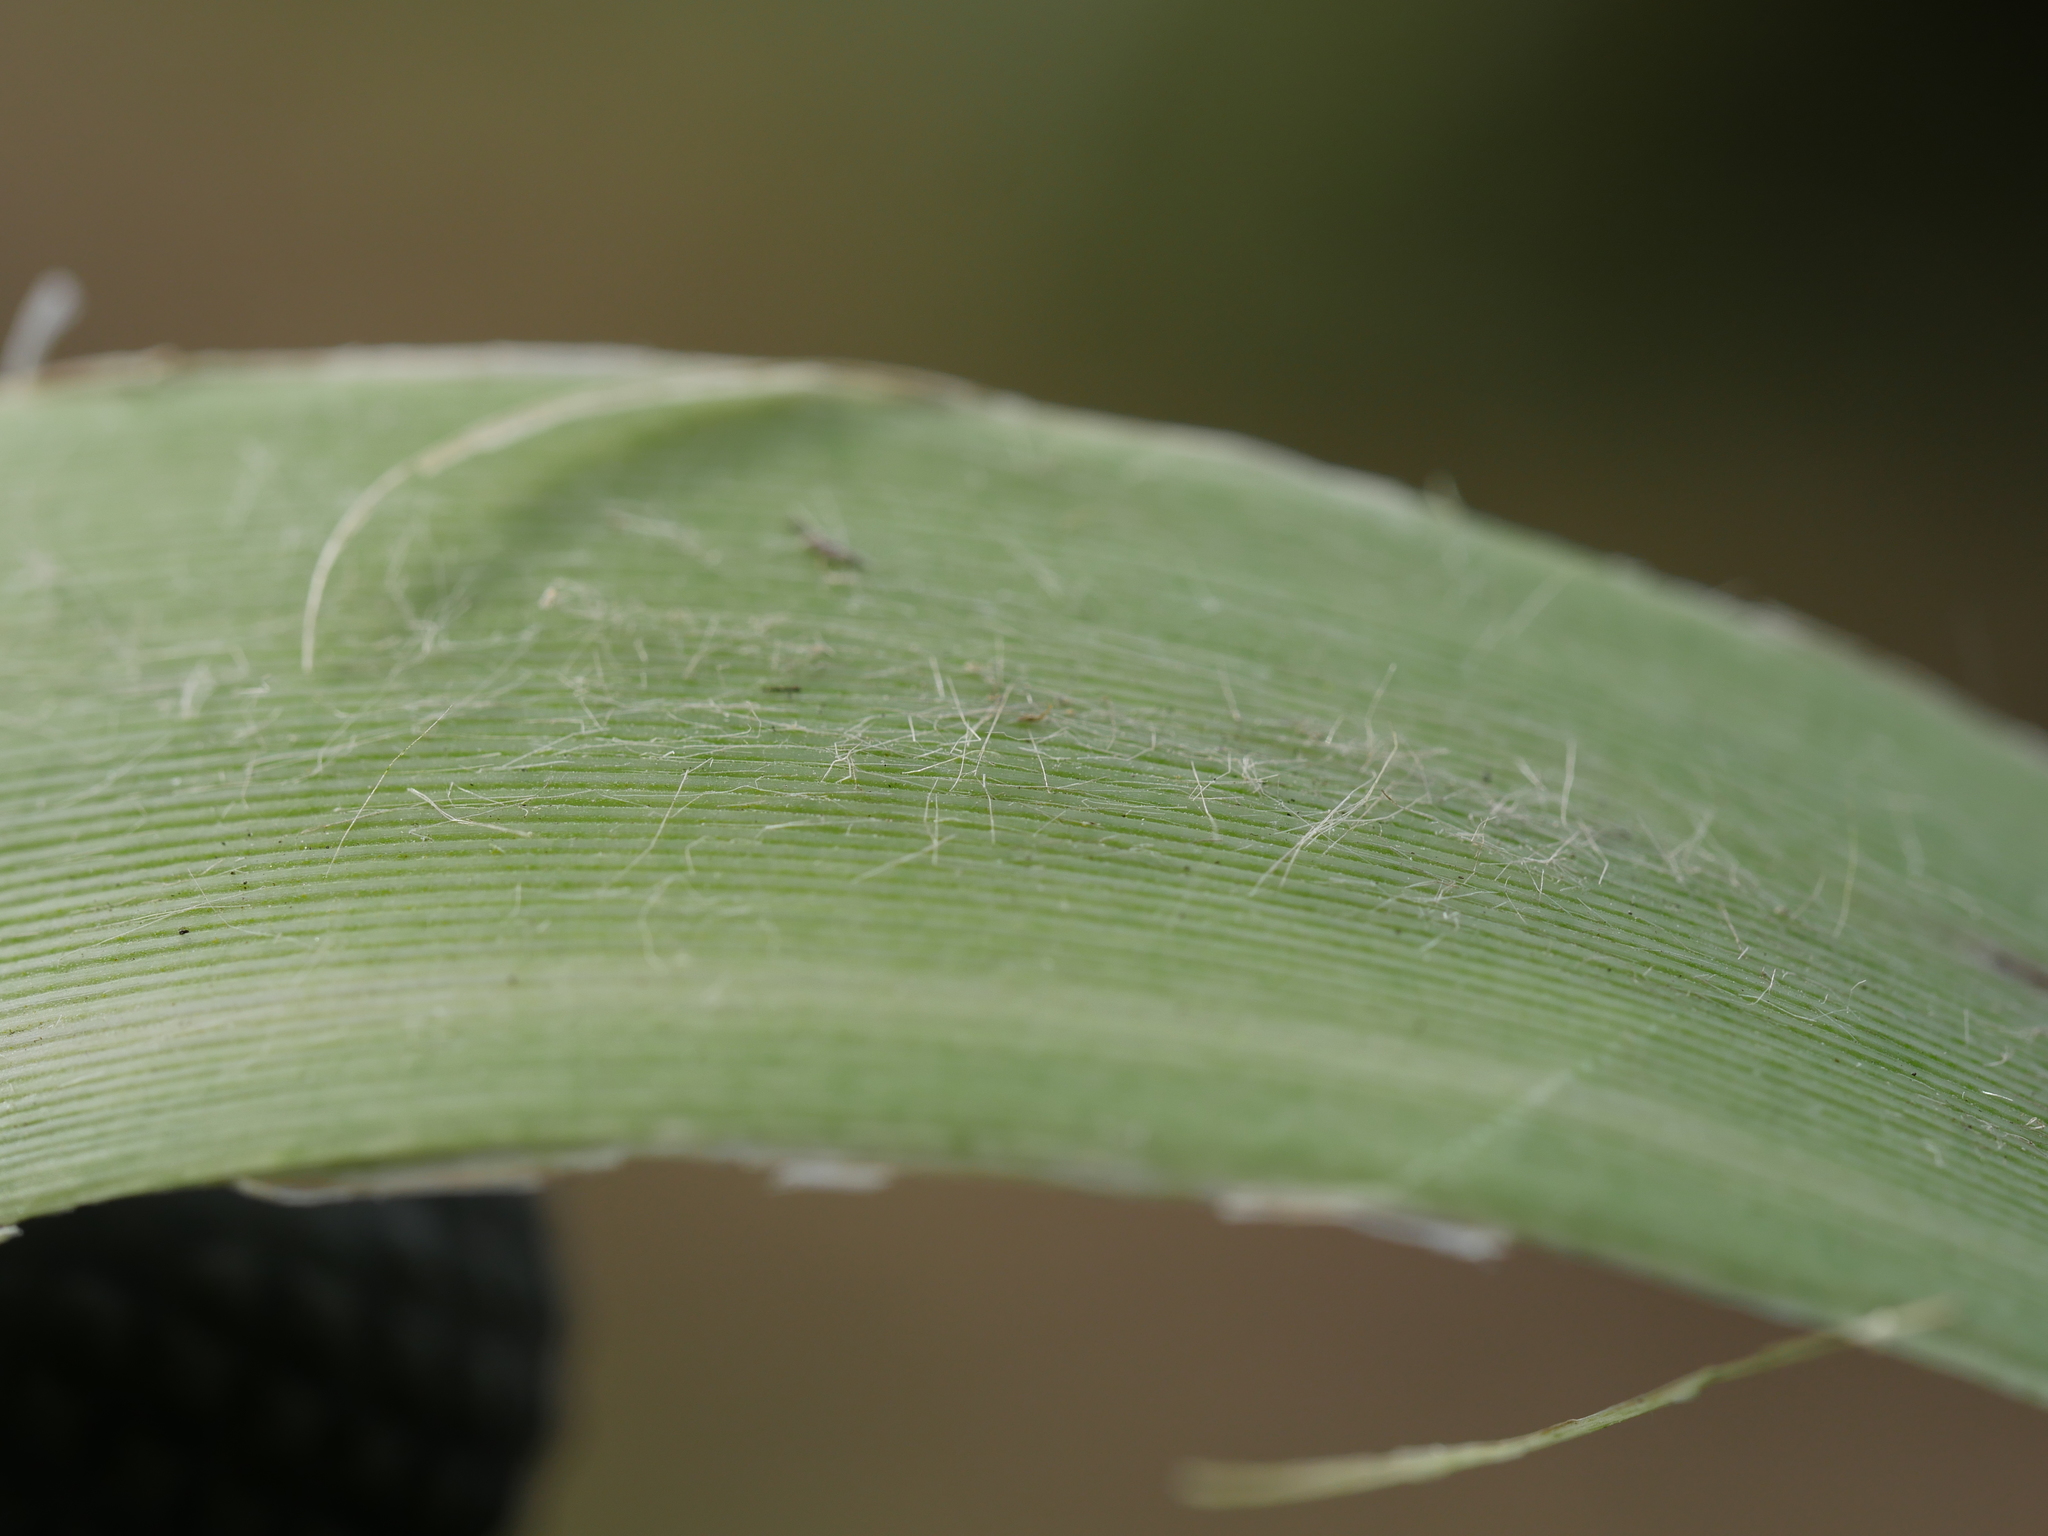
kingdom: Plantae
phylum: Tracheophyta
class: Liliopsida
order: Poales
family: Poaceae
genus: Cortaderia
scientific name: Cortaderia jubata
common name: Purple pampas grass
